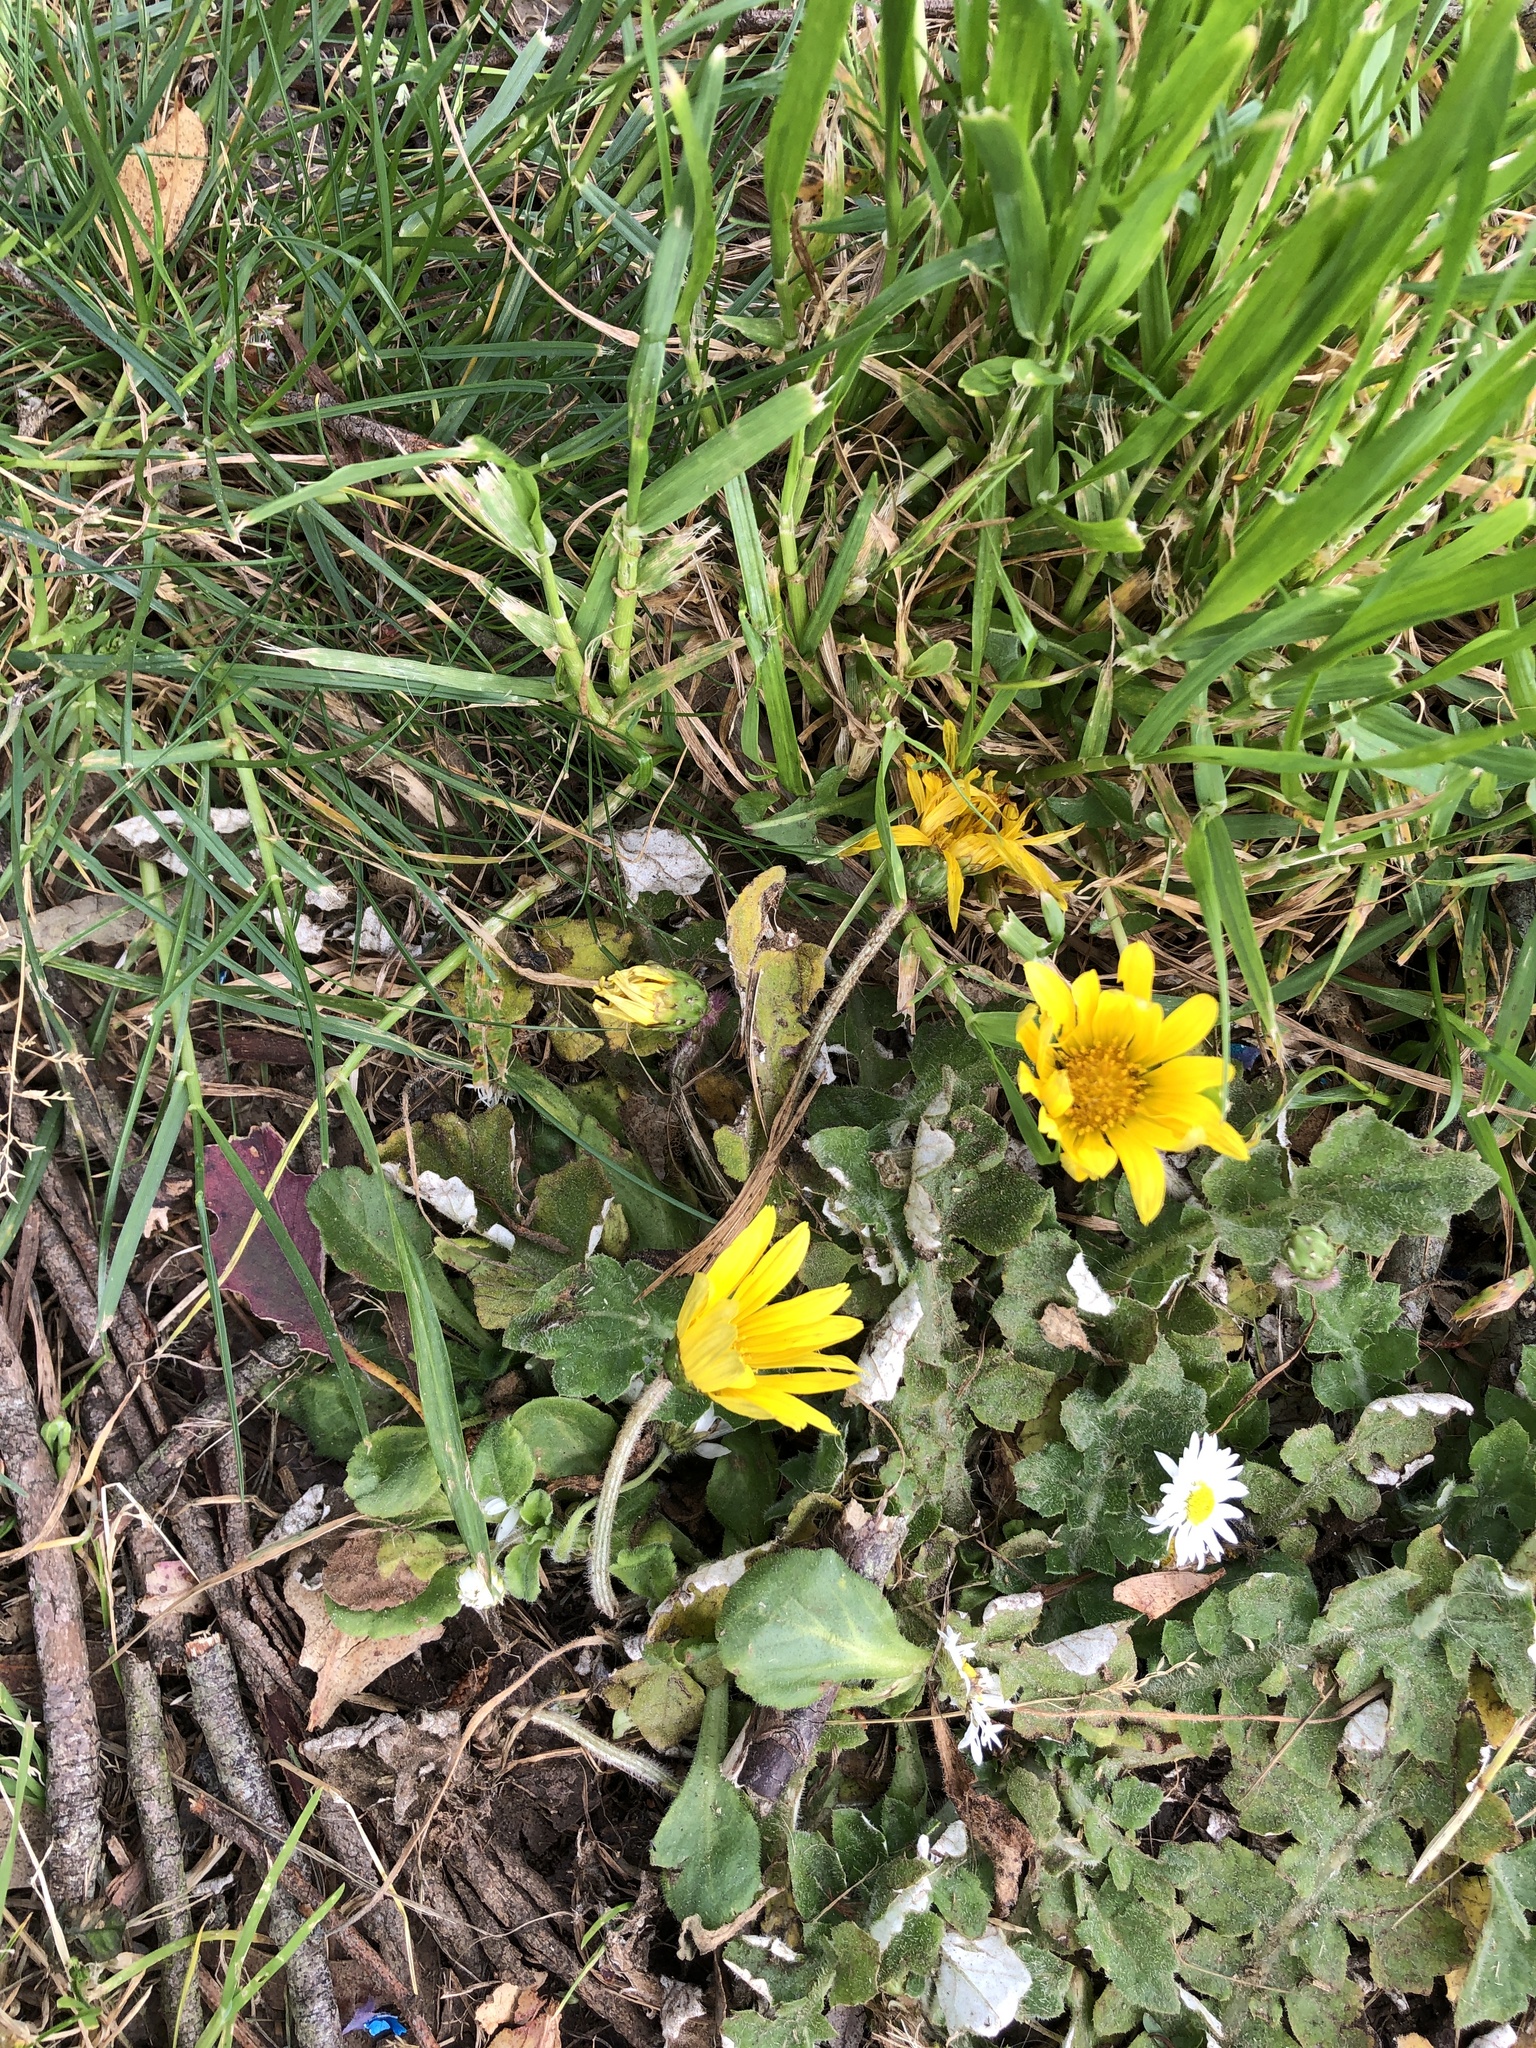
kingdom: Plantae
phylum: Tracheophyta
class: Magnoliopsida
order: Asterales
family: Asteraceae
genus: Arctotheca
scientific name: Arctotheca prostrata
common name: Capeweed
